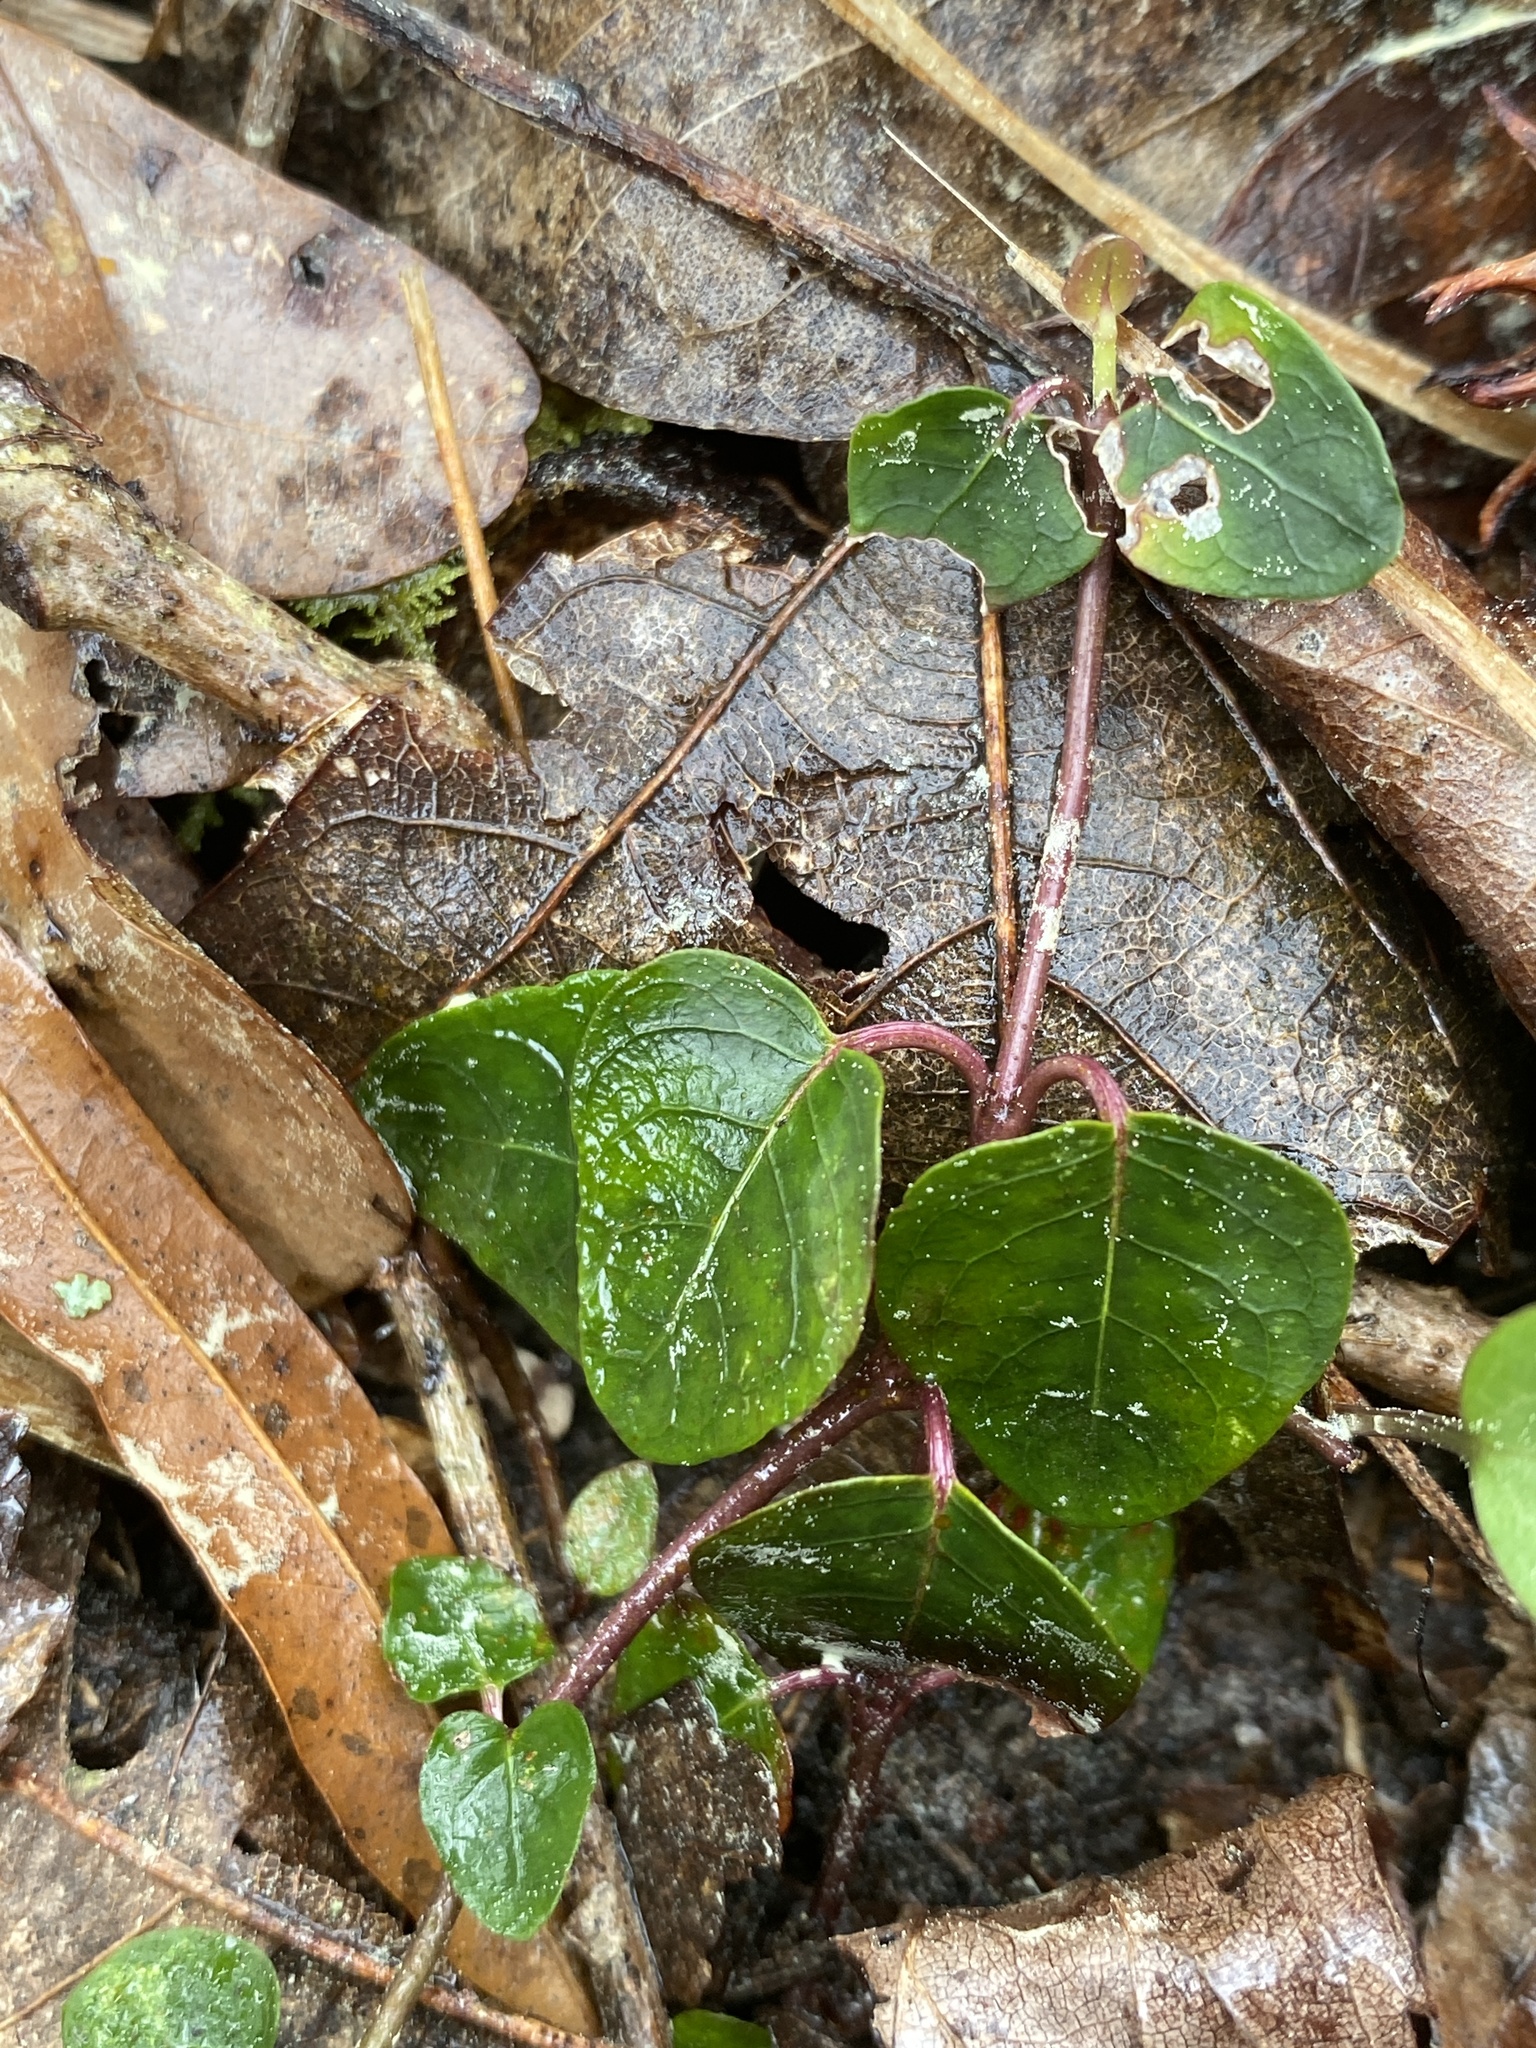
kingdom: Plantae
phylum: Tracheophyta
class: Magnoliopsida
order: Gentianales
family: Rubiaceae
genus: Mitchella
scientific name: Mitchella repens
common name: Partridge-berry
